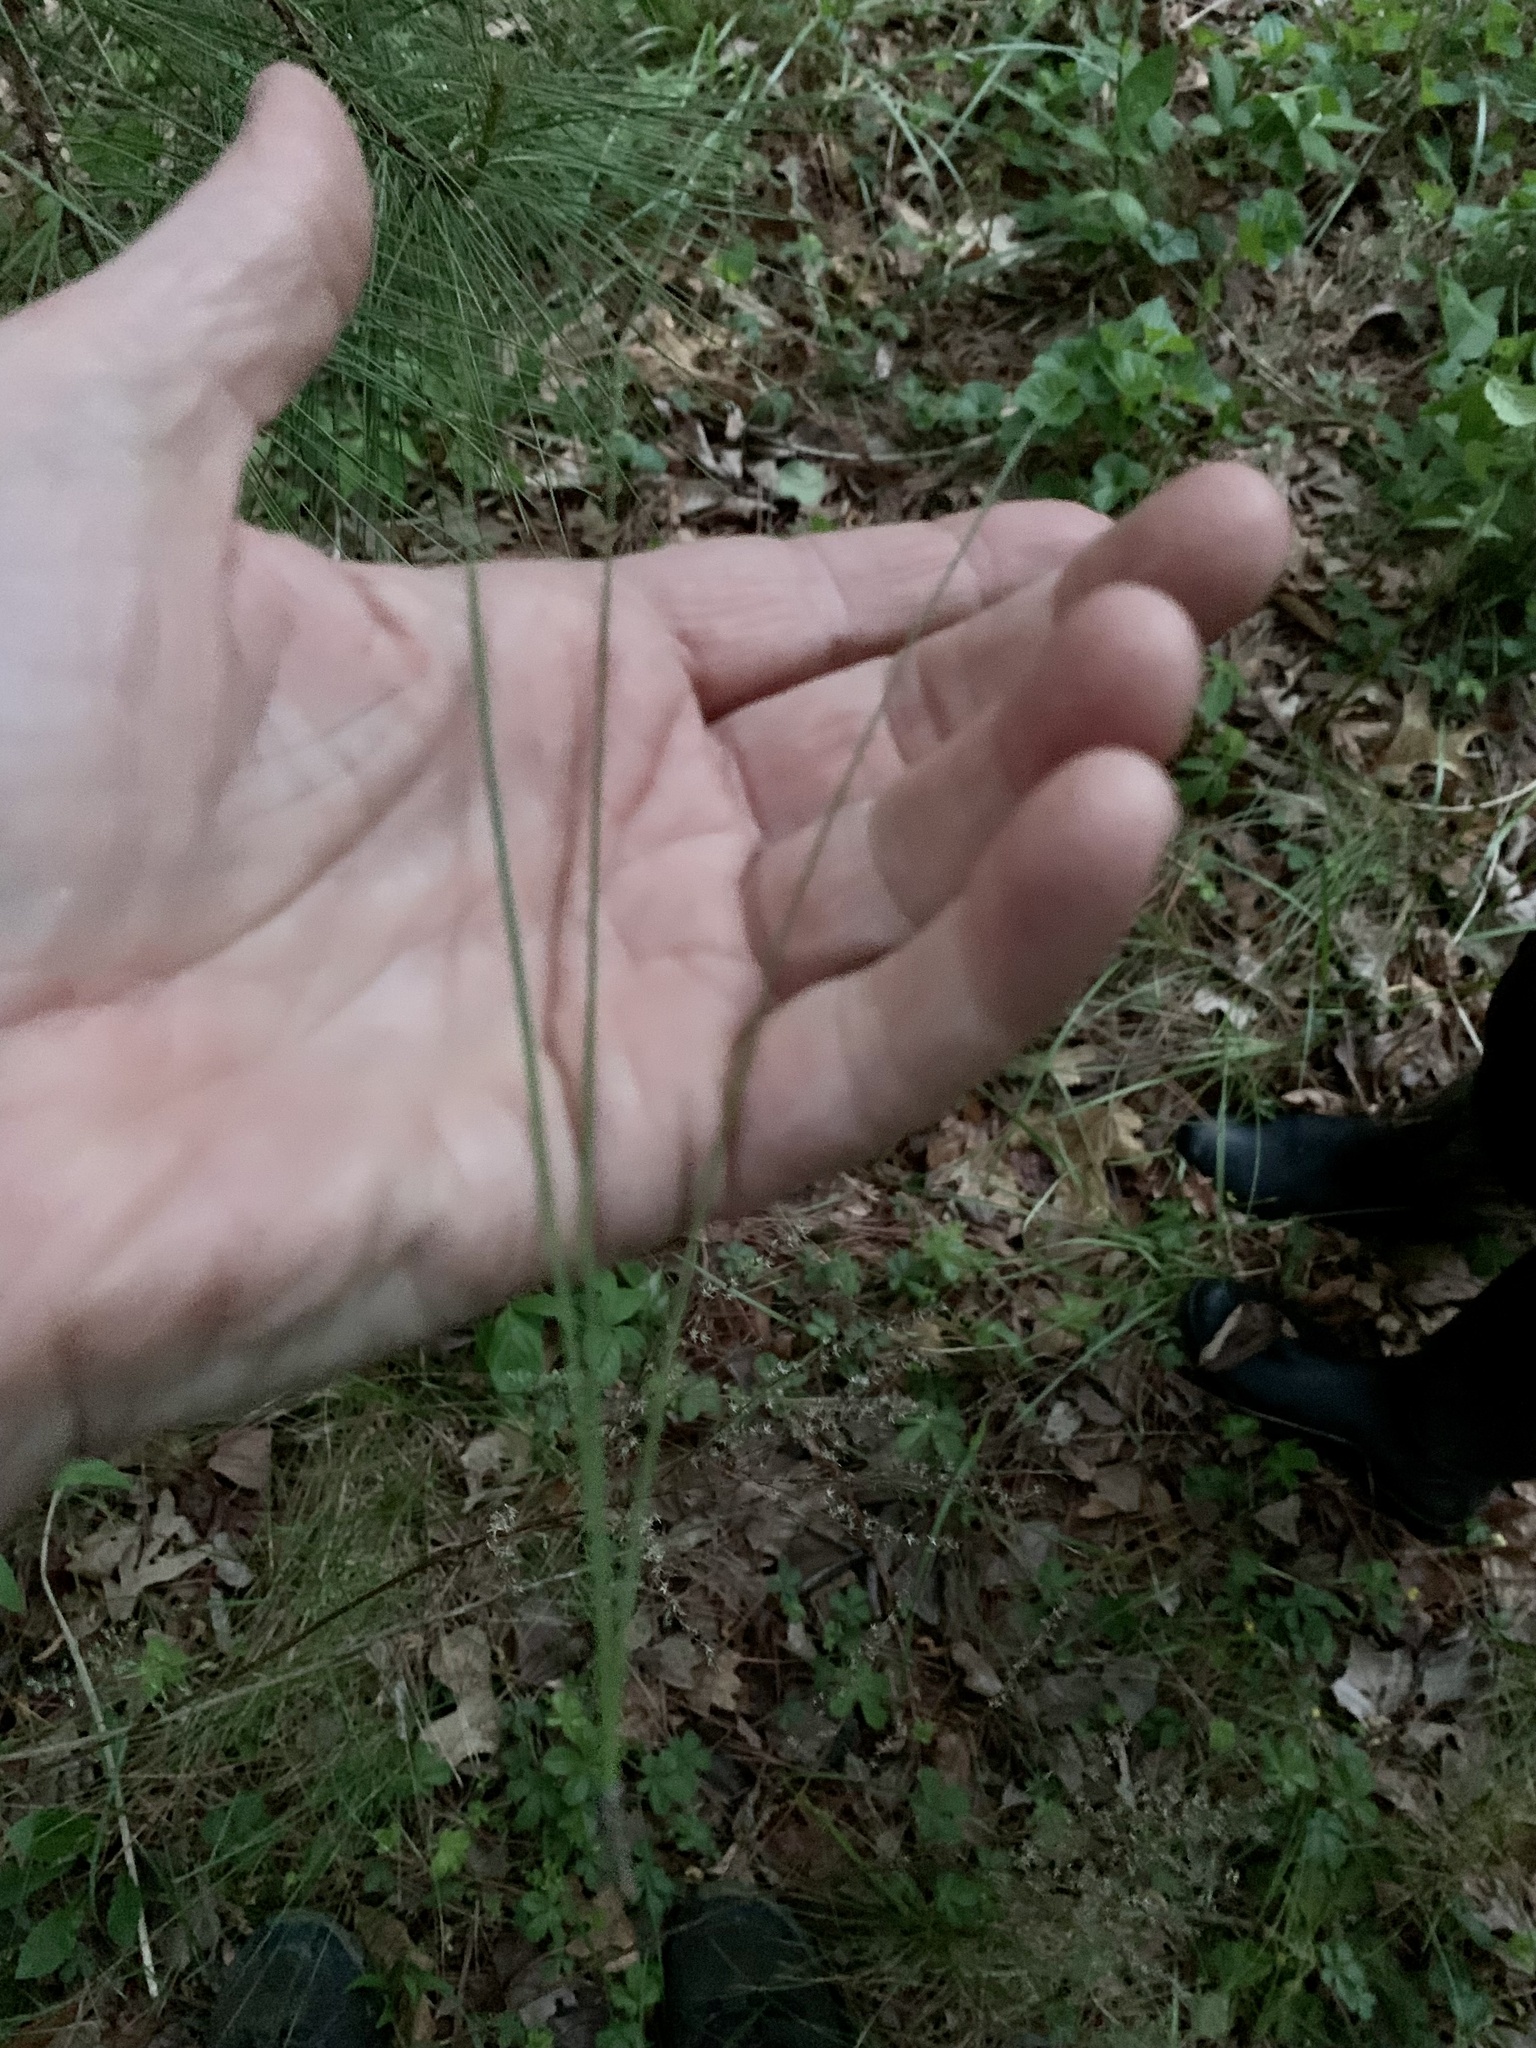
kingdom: Plantae
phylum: Tracheophyta
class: Pinopsida
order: Pinales
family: Pinaceae
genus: Pinus
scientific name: Pinus taeda
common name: Loblolly pine
